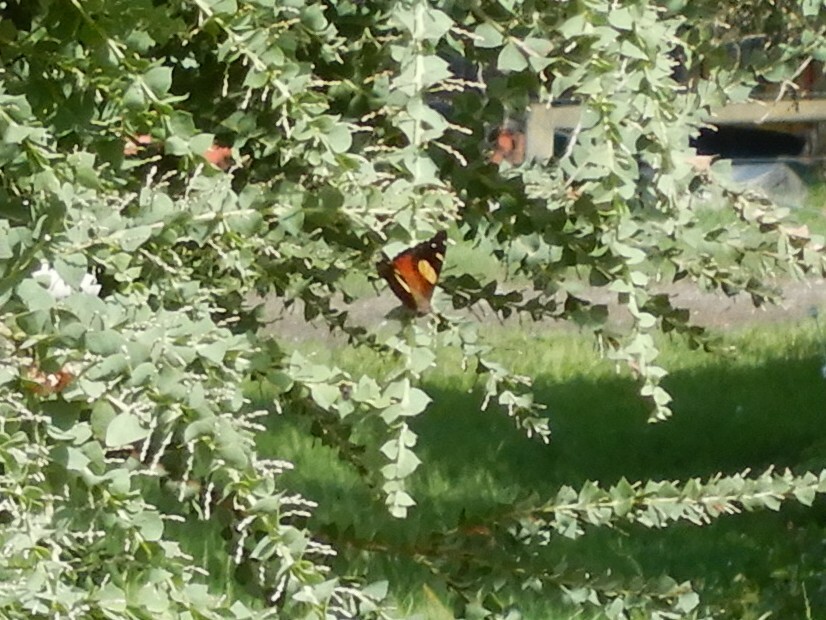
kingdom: Animalia
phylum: Arthropoda
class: Insecta
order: Lepidoptera
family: Nymphalidae
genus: Vanessa
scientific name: Vanessa itea
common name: Yellow admiral
